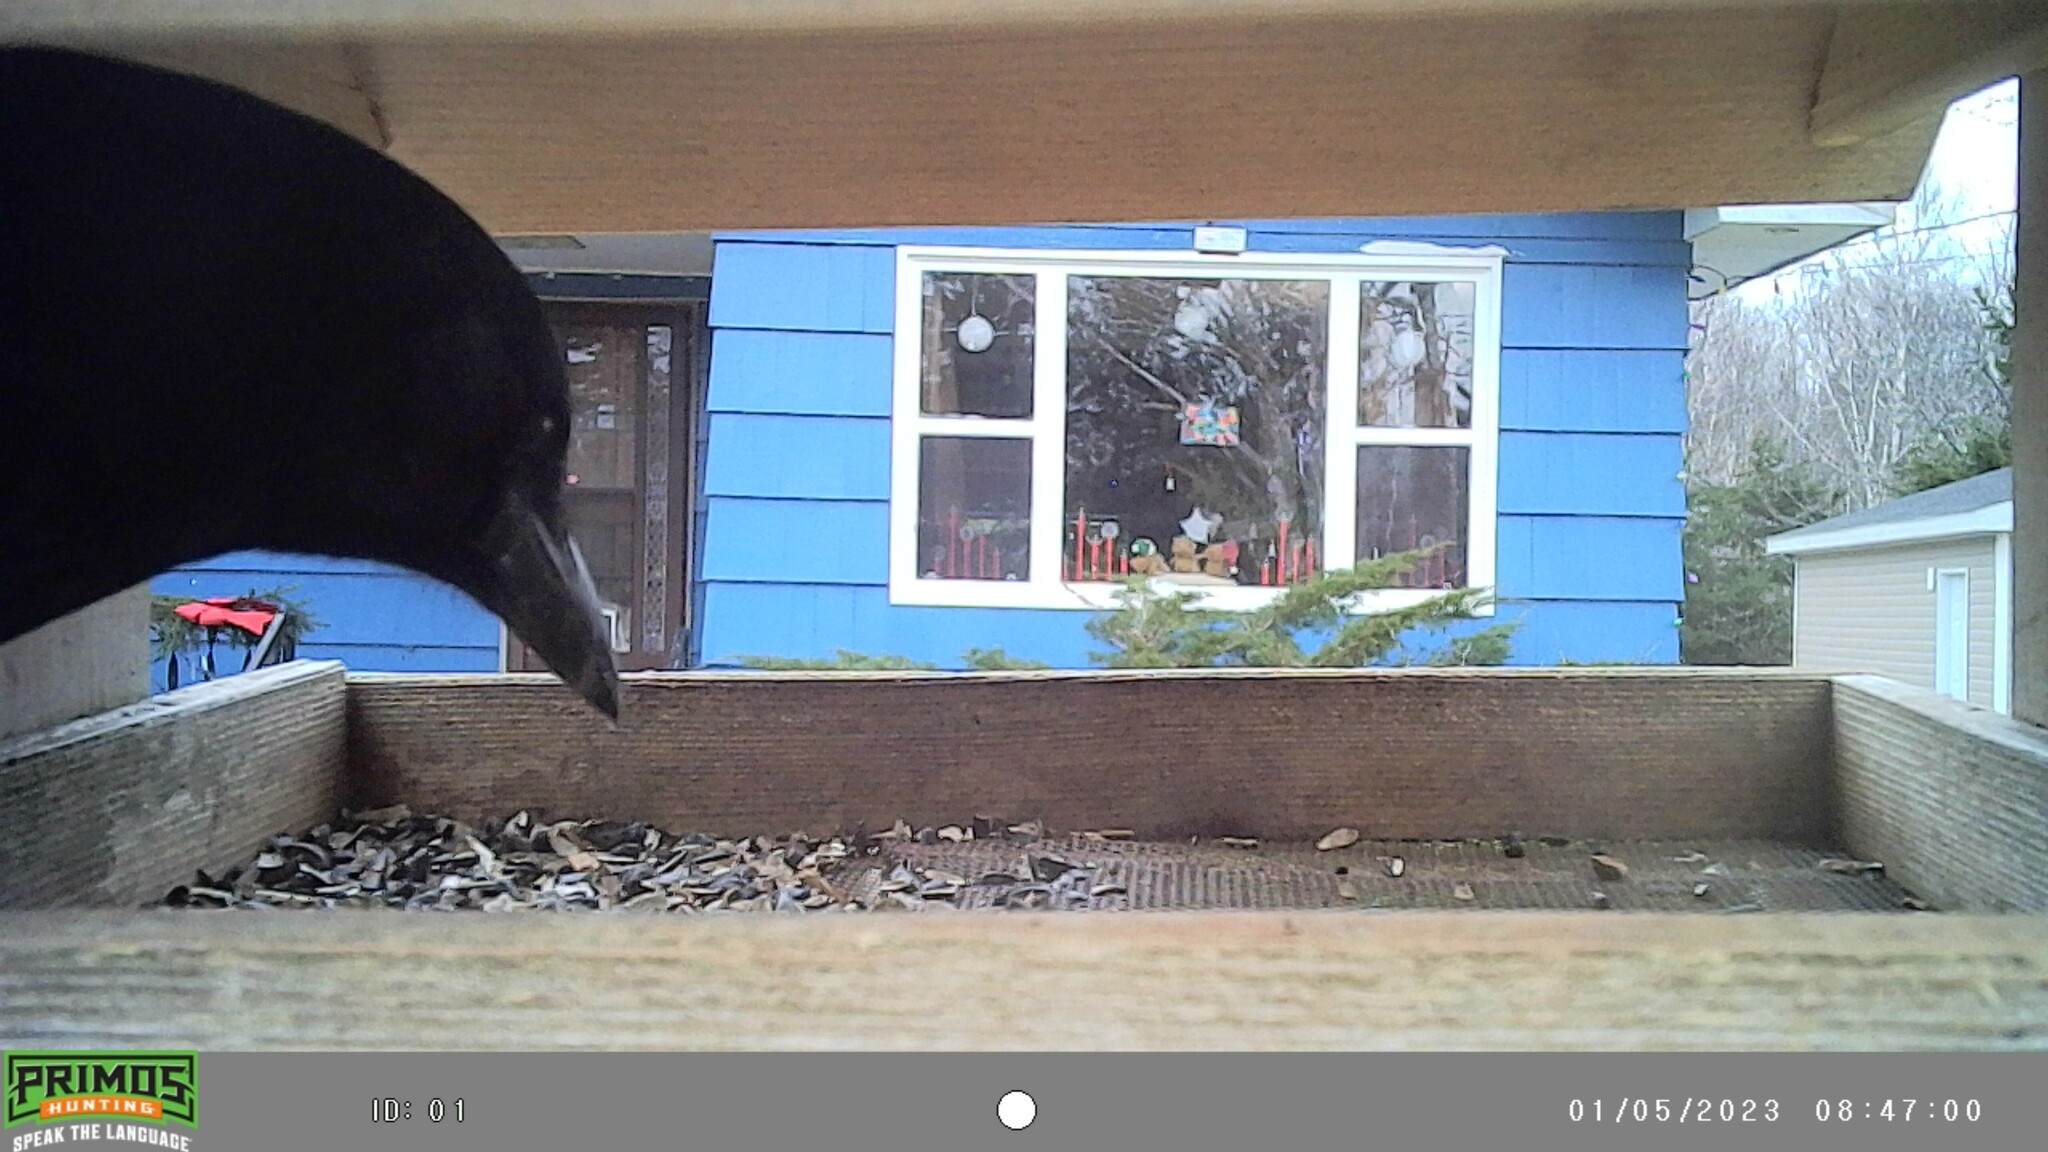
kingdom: Animalia
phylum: Chordata
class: Aves
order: Passeriformes
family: Corvidae
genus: Corvus
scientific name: Corvus brachyrhynchos
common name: American crow
